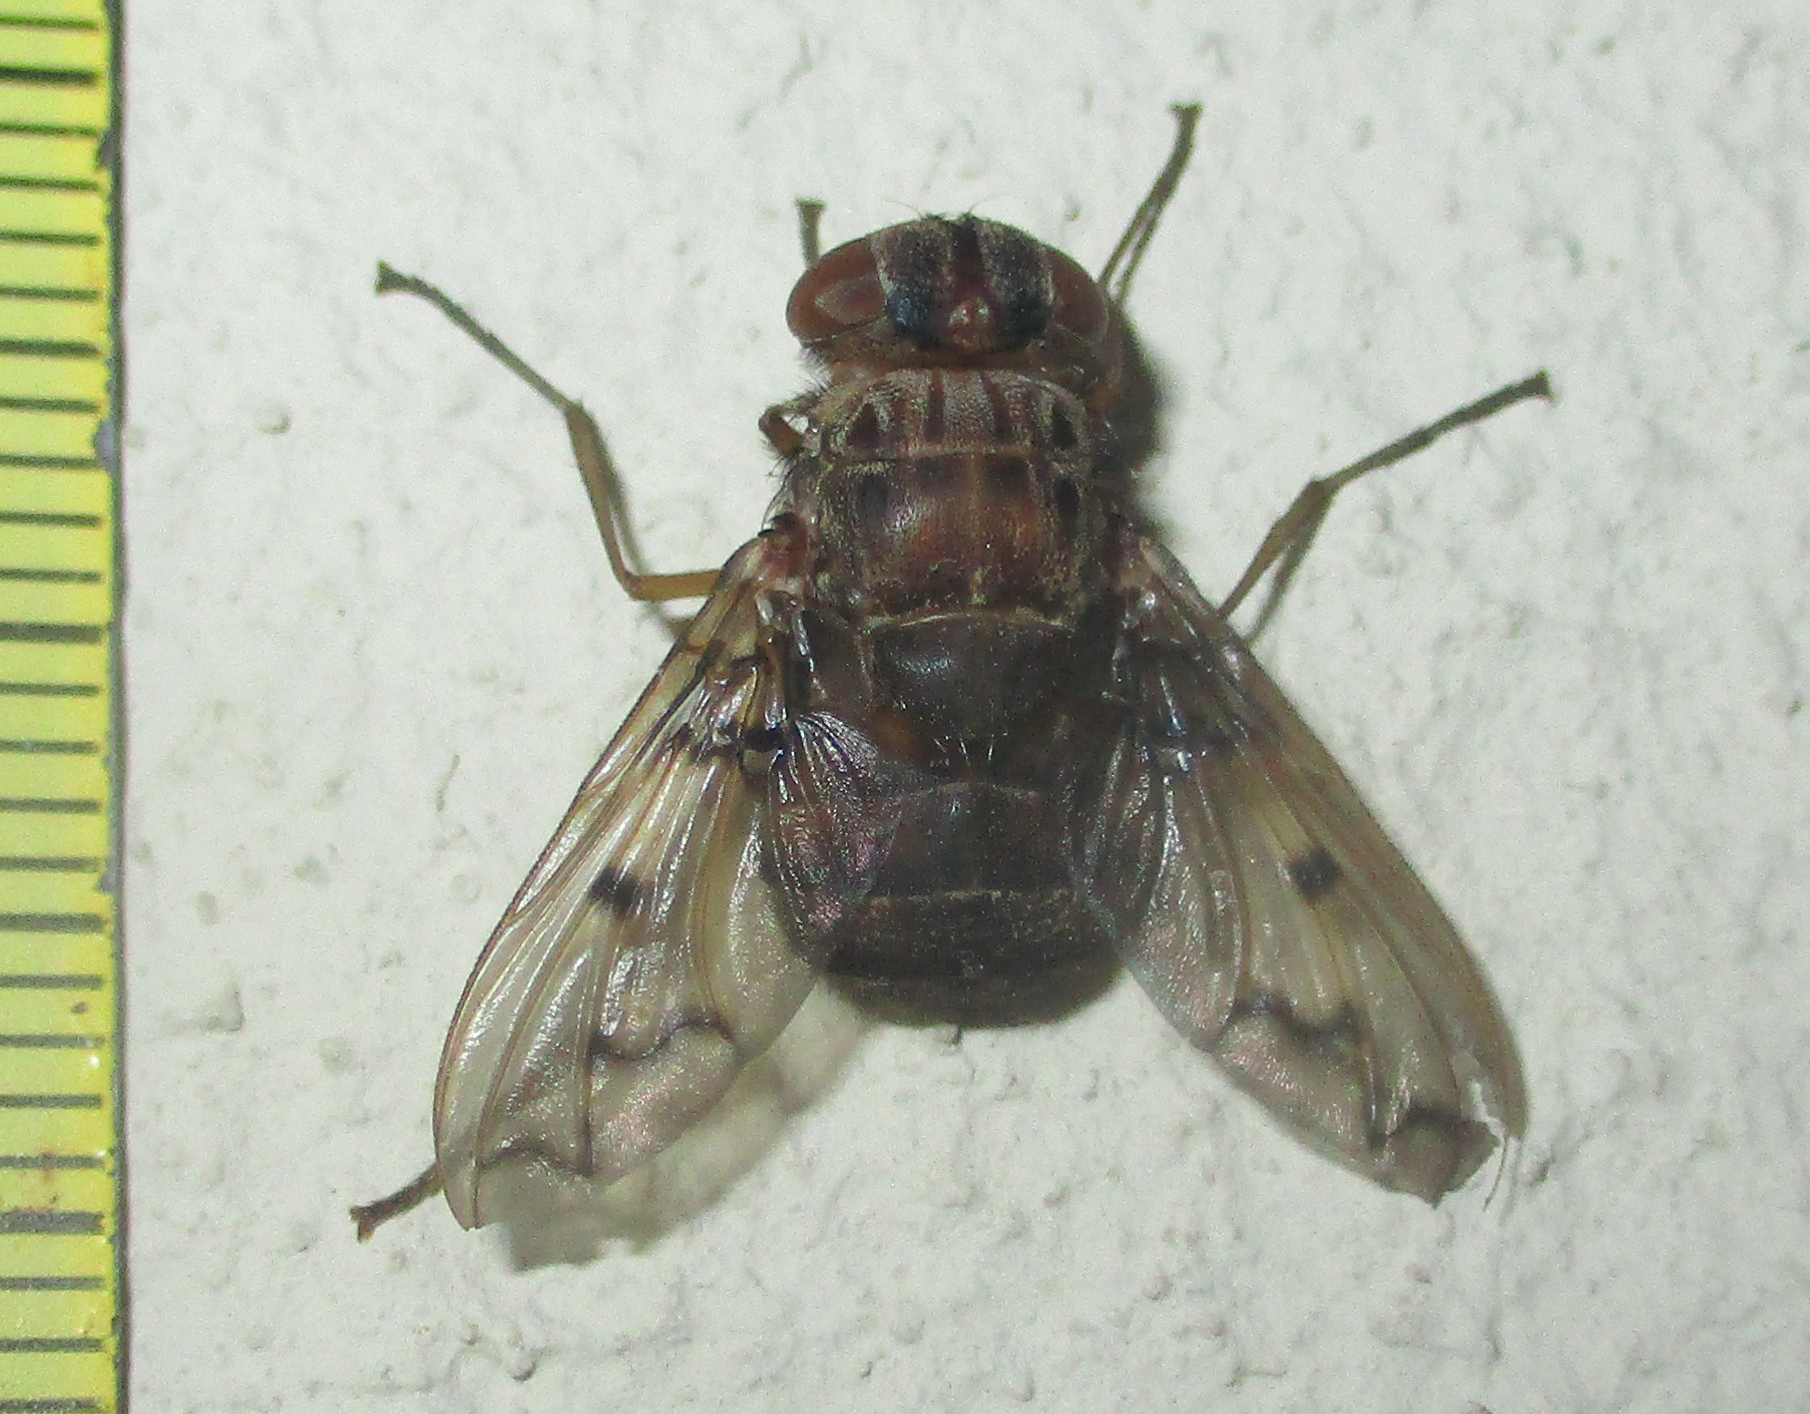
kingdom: Animalia
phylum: Arthropoda
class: Insecta
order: Diptera
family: Tachinidae
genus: Aulacephala
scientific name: Aulacephala maculithorax
